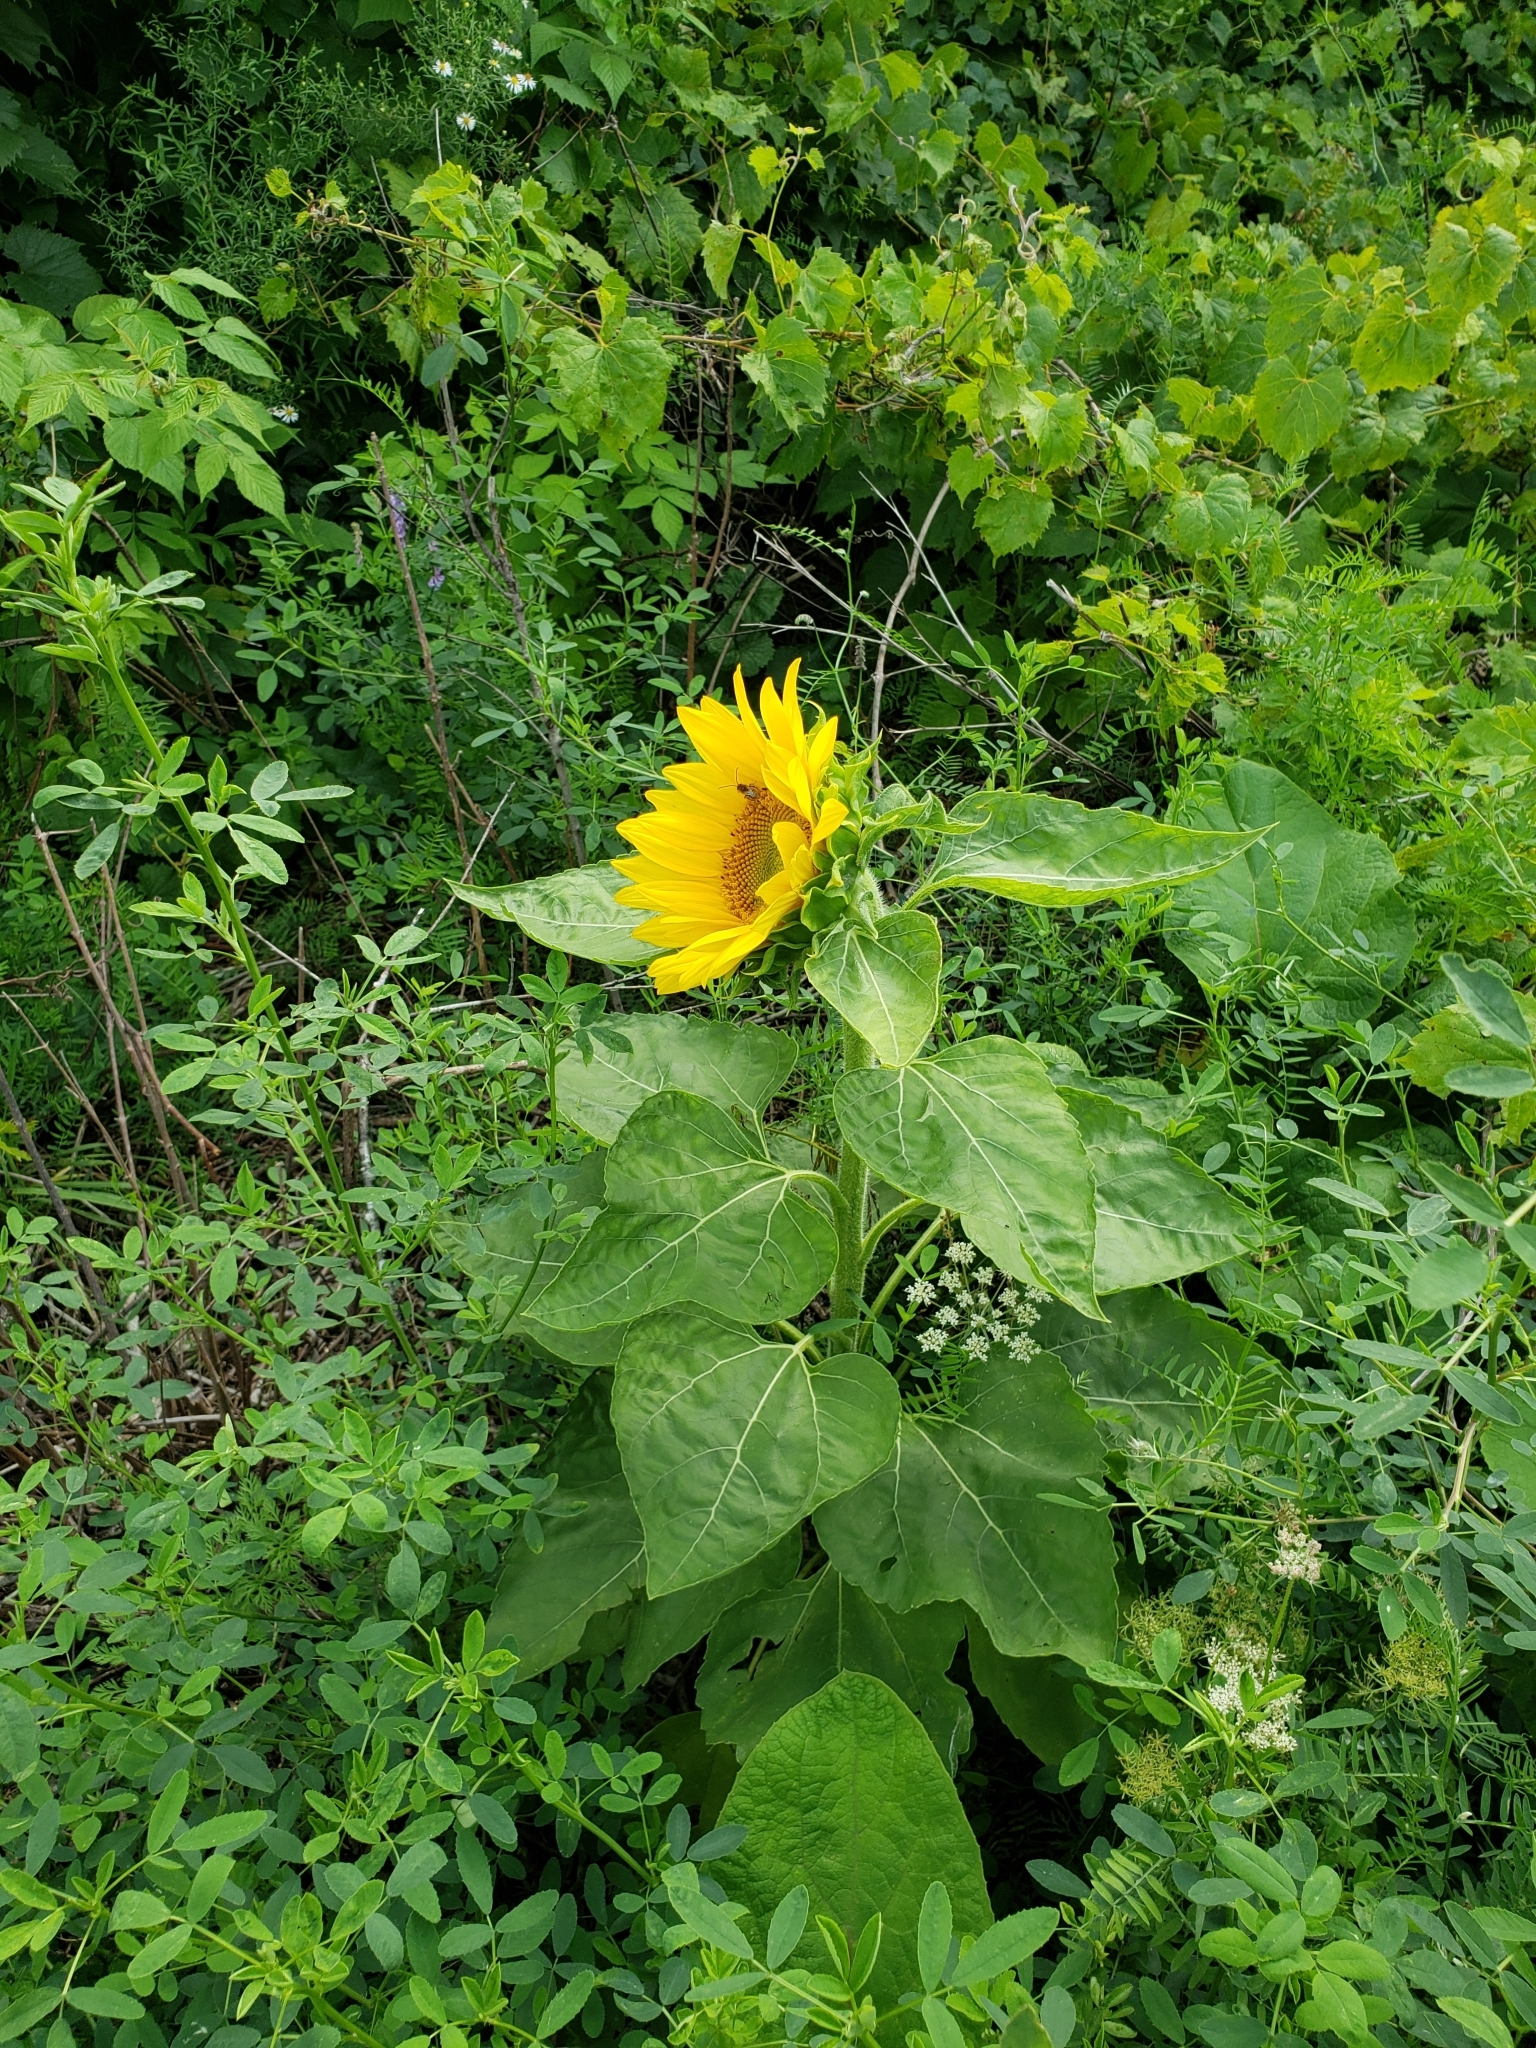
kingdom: Plantae
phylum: Tracheophyta
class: Magnoliopsida
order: Asterales
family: Asteraceae
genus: Helianthus
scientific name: Helianthus annuus
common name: Sunflower
